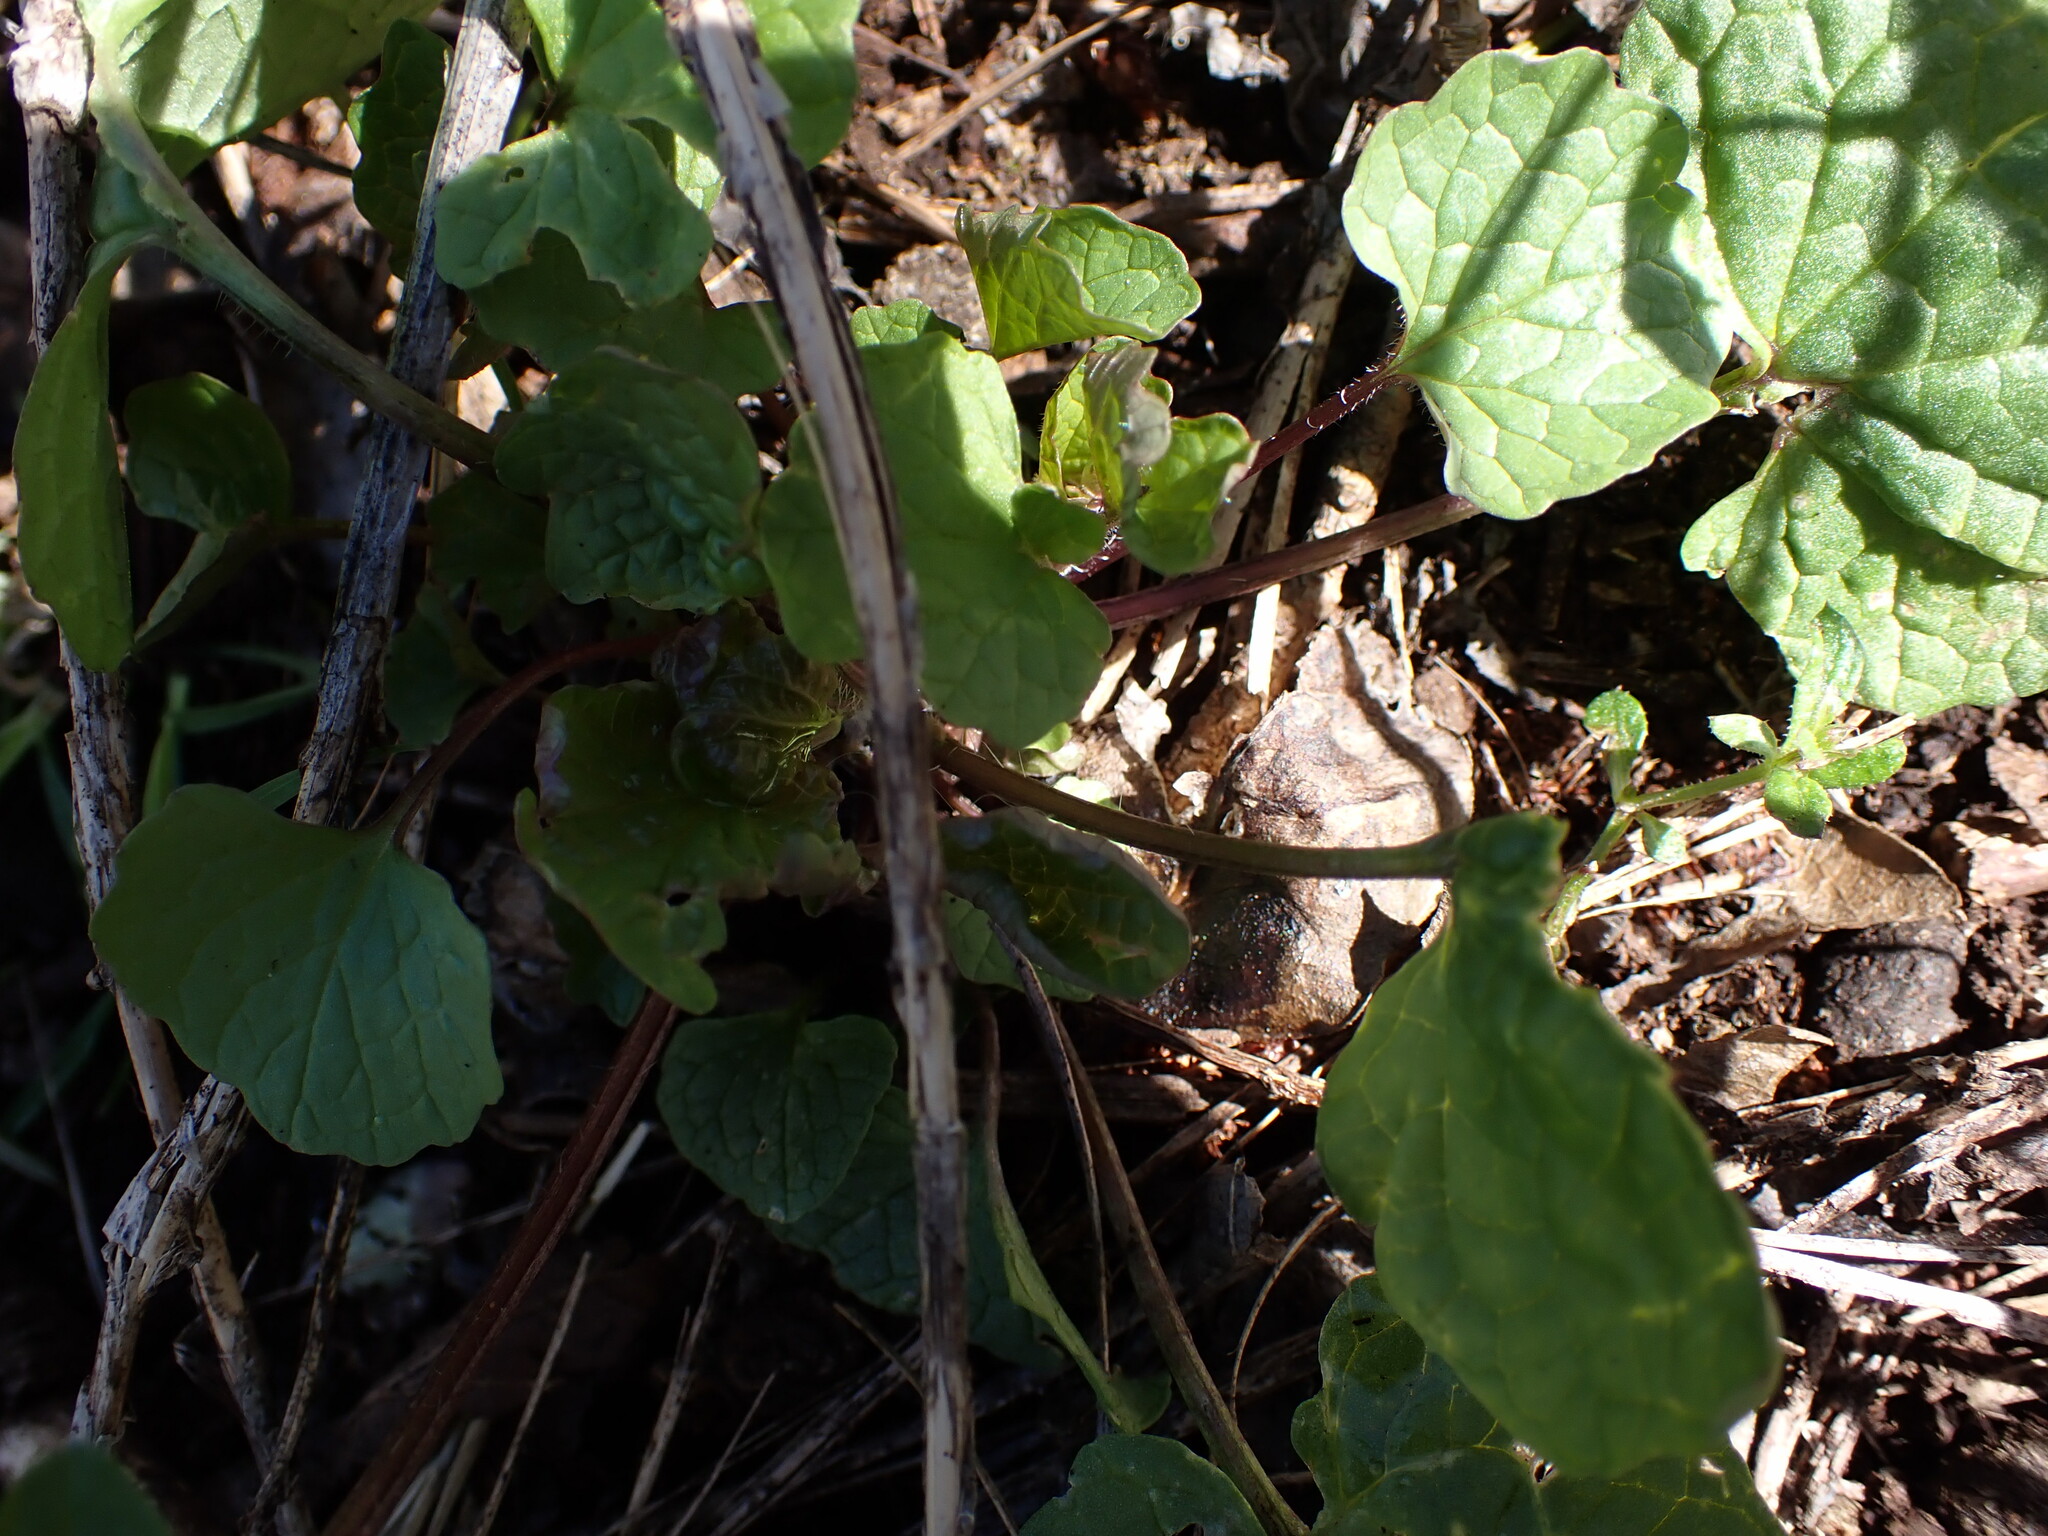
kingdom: Plantae
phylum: Tracheophyta
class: Magnoliopsida
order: Brassicales
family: Brassicaceae
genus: Alliaria
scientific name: Alliaria petiolata
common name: Garlic mustard
